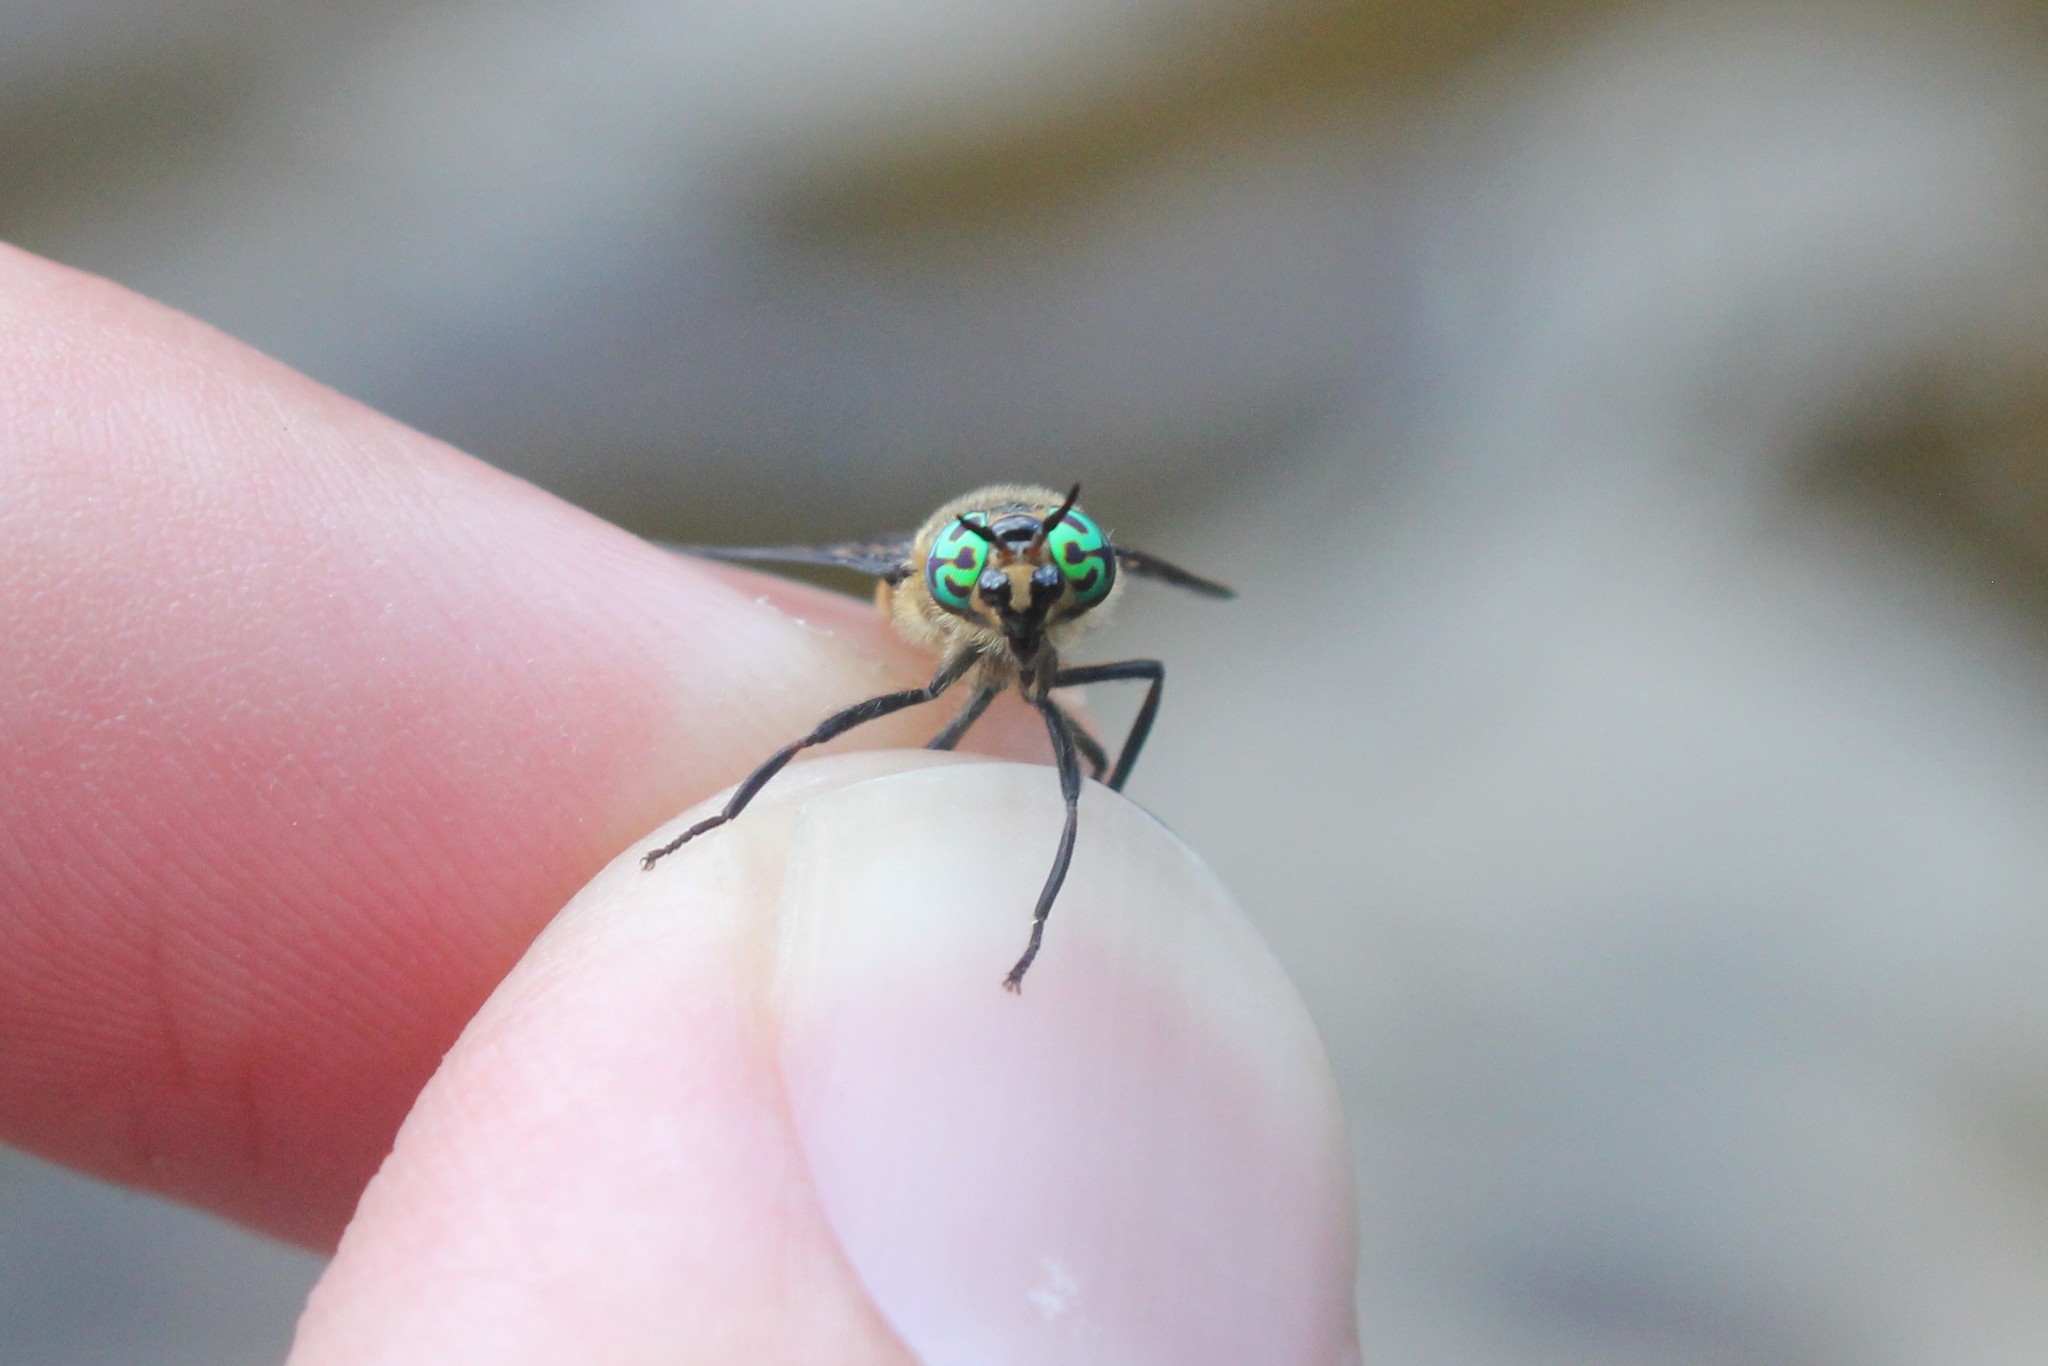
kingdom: Animalia
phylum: Arthropoda
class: Insecta
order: Diptera
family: Tabanidae
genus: Chrysops
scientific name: Chrysops excitans
